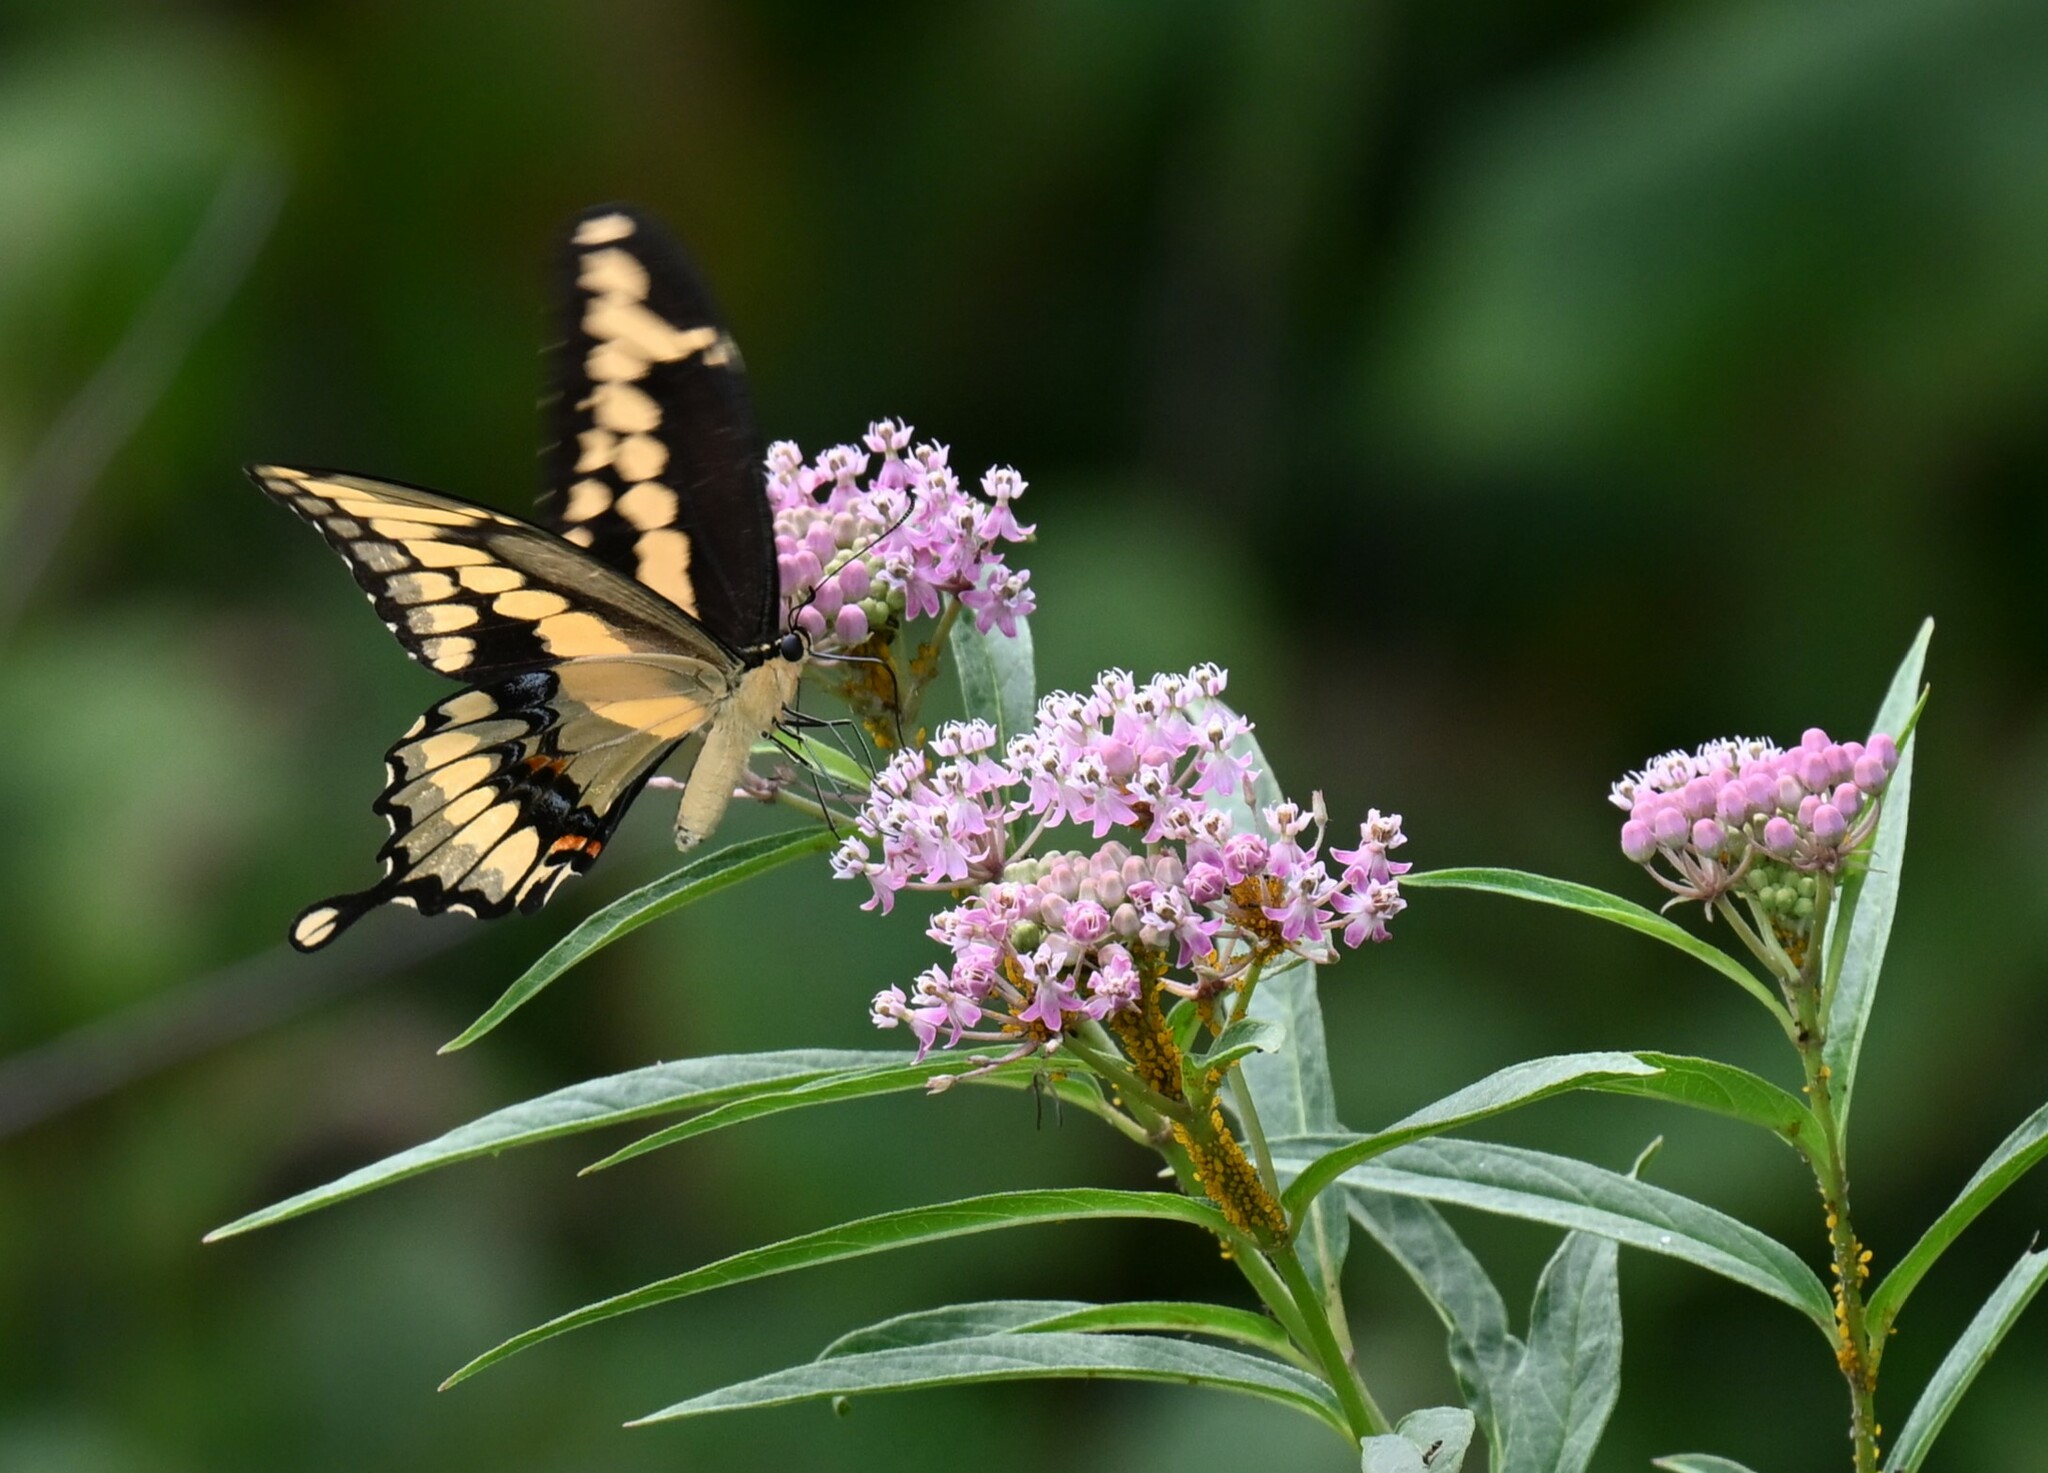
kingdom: Animalia
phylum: Arthropoda
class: Insecta
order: Lepidoptera
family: Papilionidae
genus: Papilio
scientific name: Papilio cresphontes
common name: Giant swallowtail
